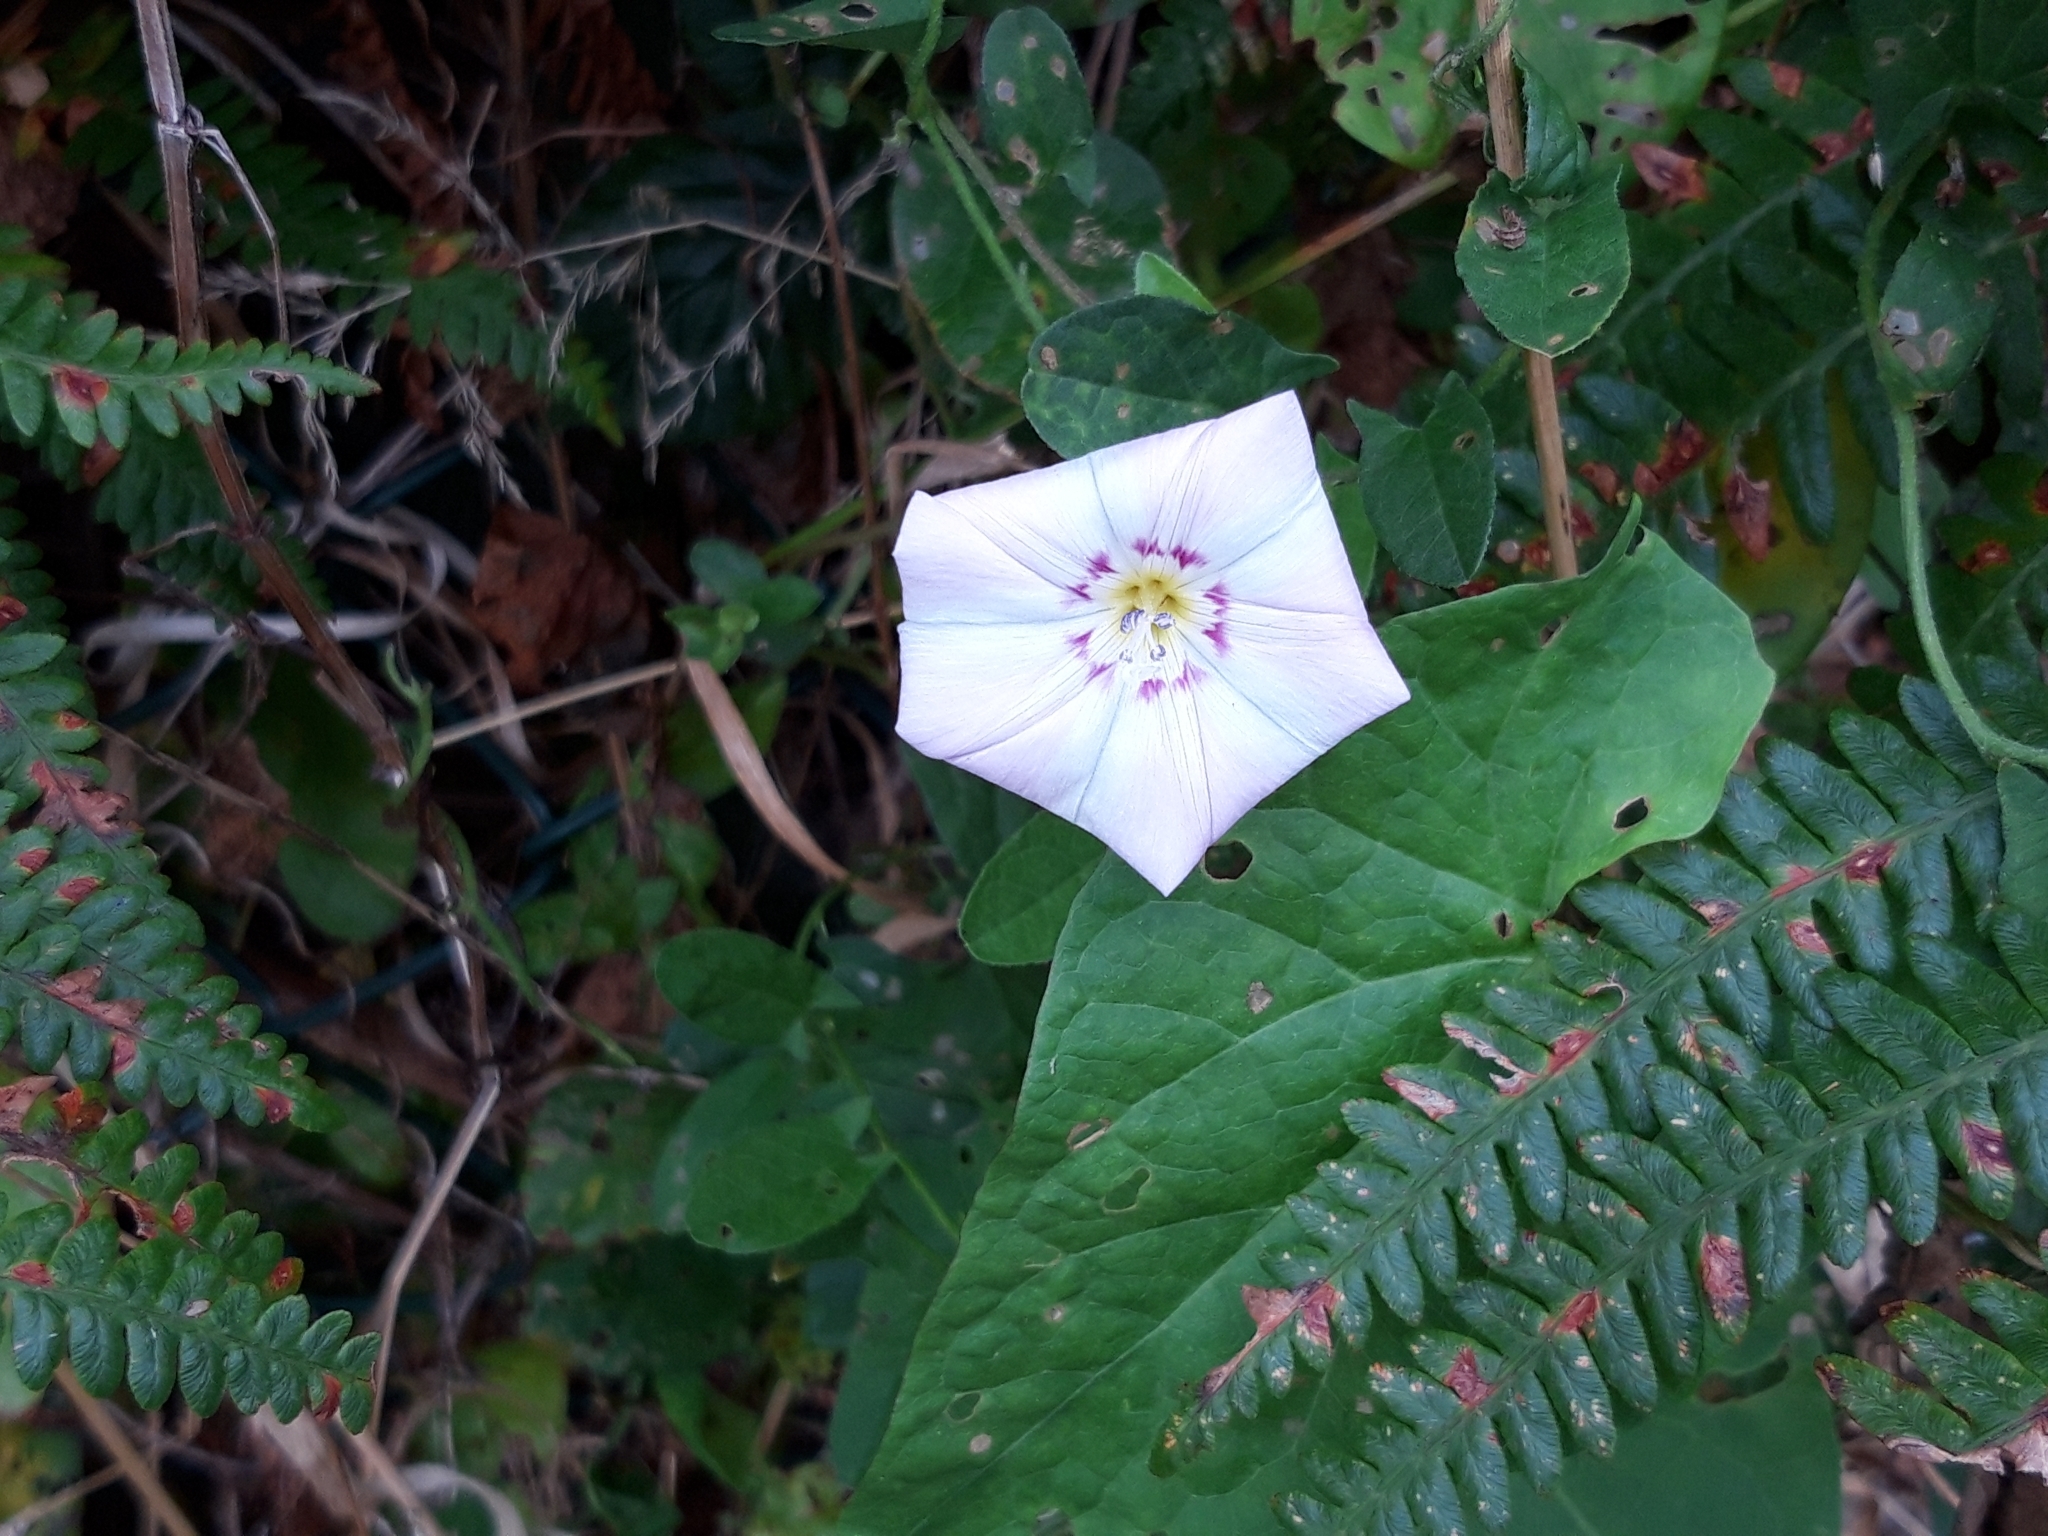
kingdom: Plantae
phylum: Tracheophyta
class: Magnoliopsida
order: Solanales
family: Convolvulaceae
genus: Convolvulus
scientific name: Convolvulus arvensis
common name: Field bindweed
